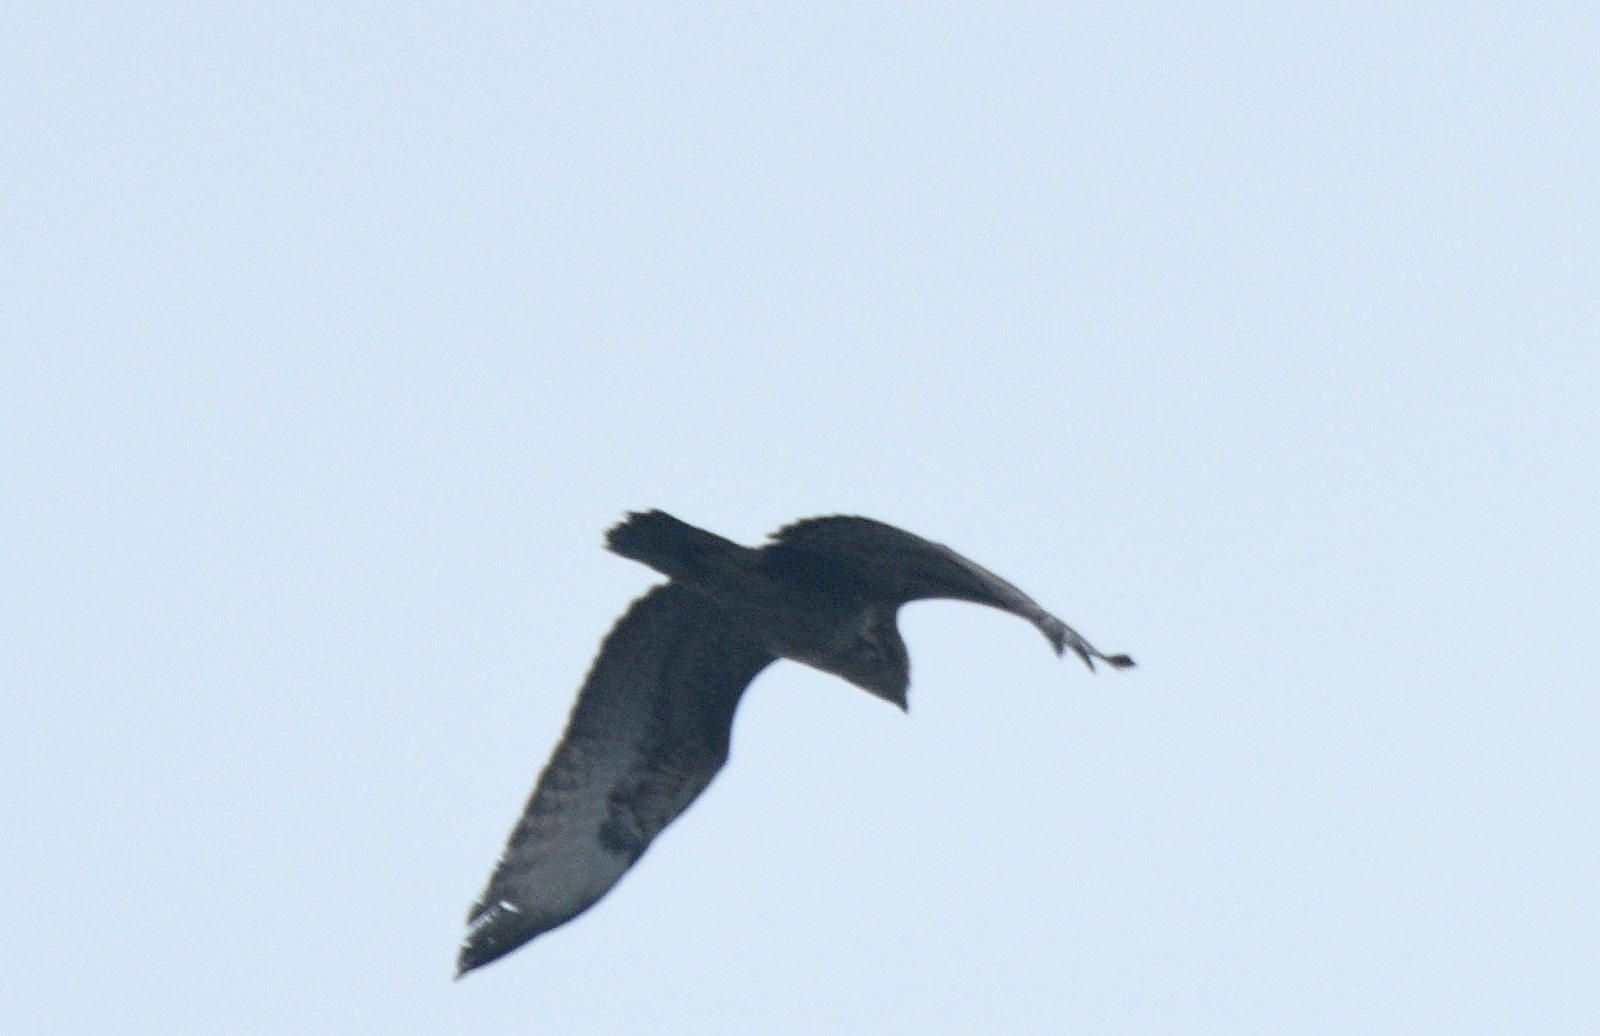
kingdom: Animalia
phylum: Chordata
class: Aves
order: Accipitriformes
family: Accipitridae
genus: Buteo
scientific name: Buteo buteo
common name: Common buzzard
